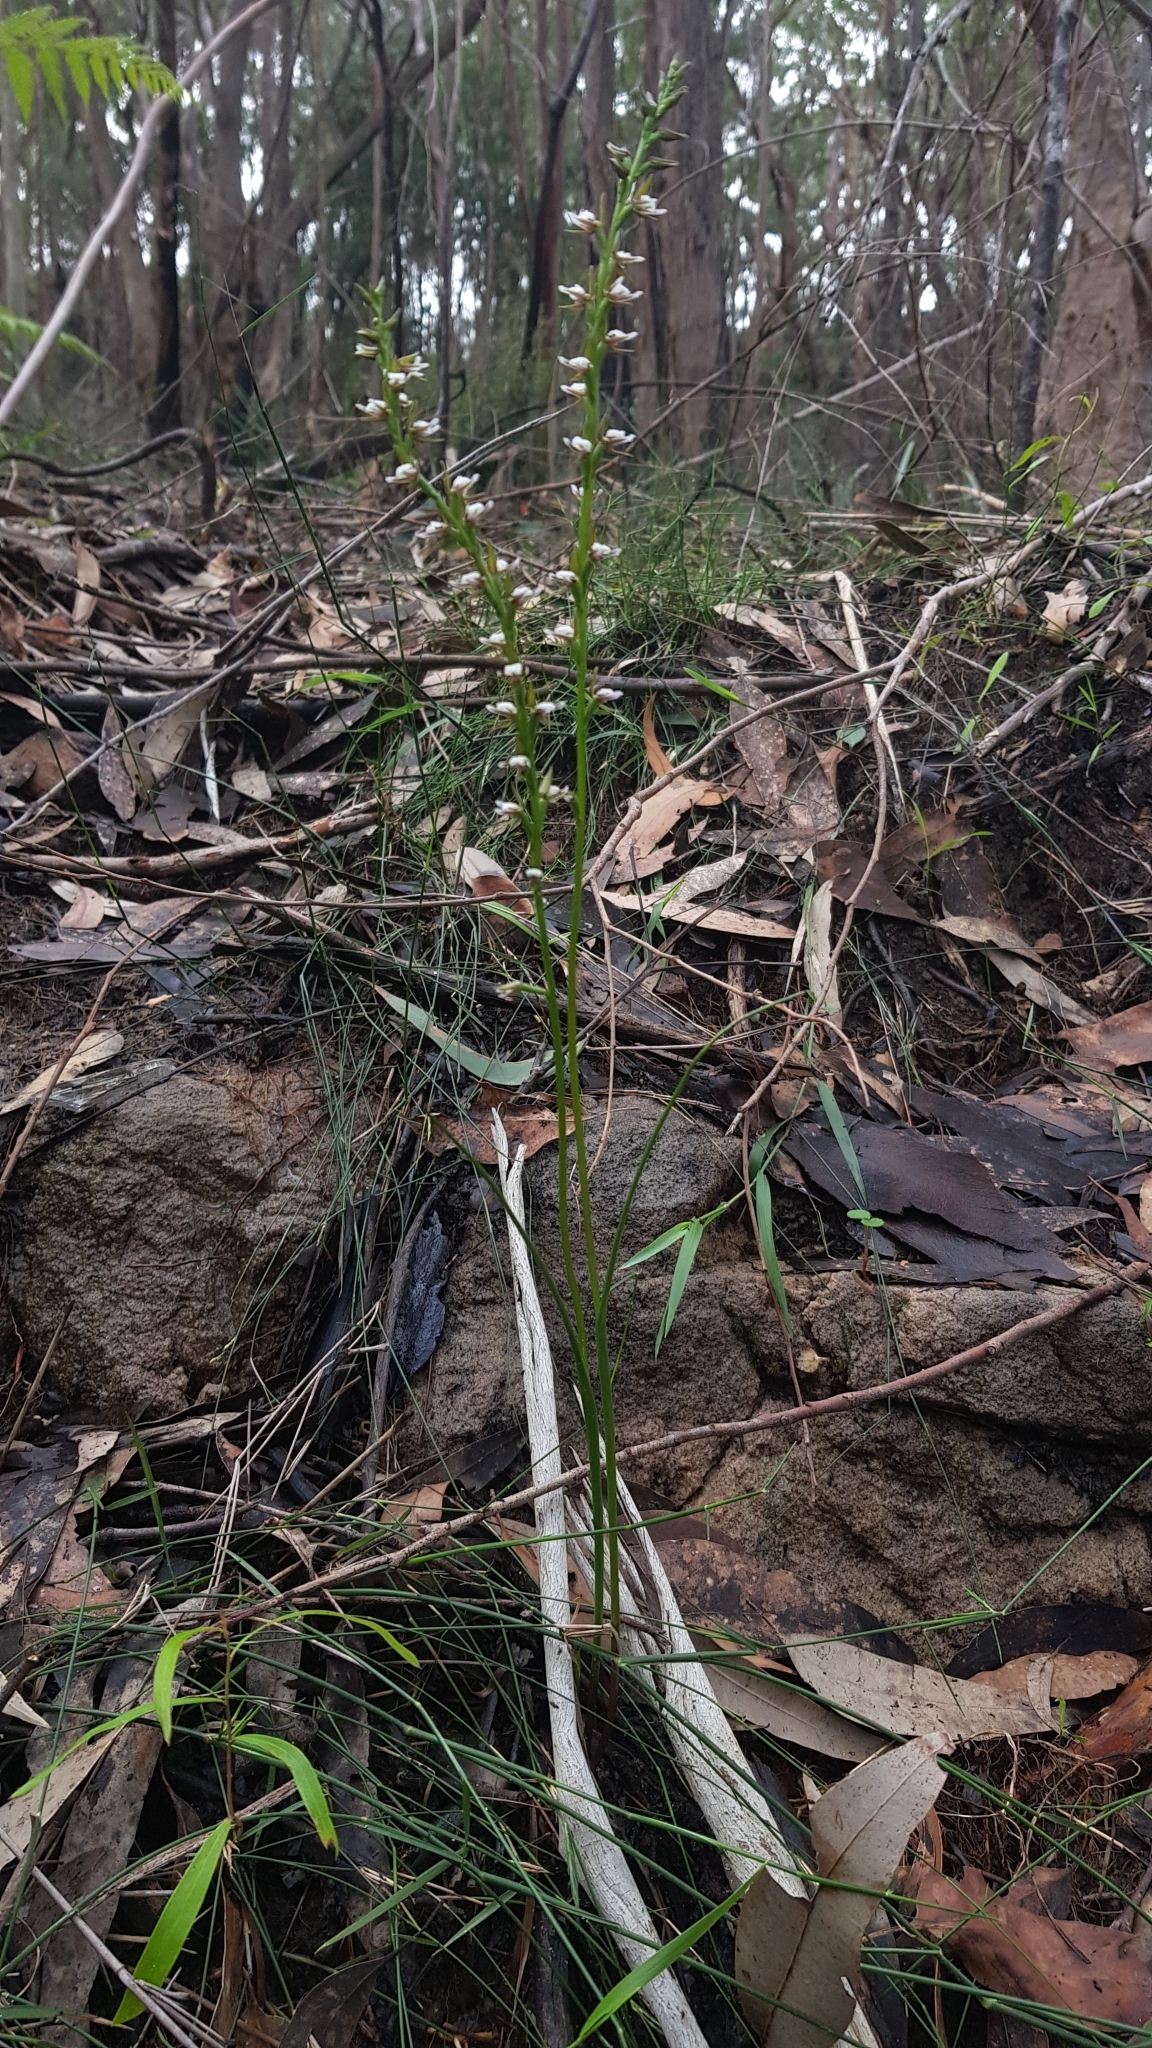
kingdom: Plantae
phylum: Tracheophyta
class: Liliopsida
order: Asparagales
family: Orchidaceae
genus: Prasophyllum
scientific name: Prasophyllum brevilabre
